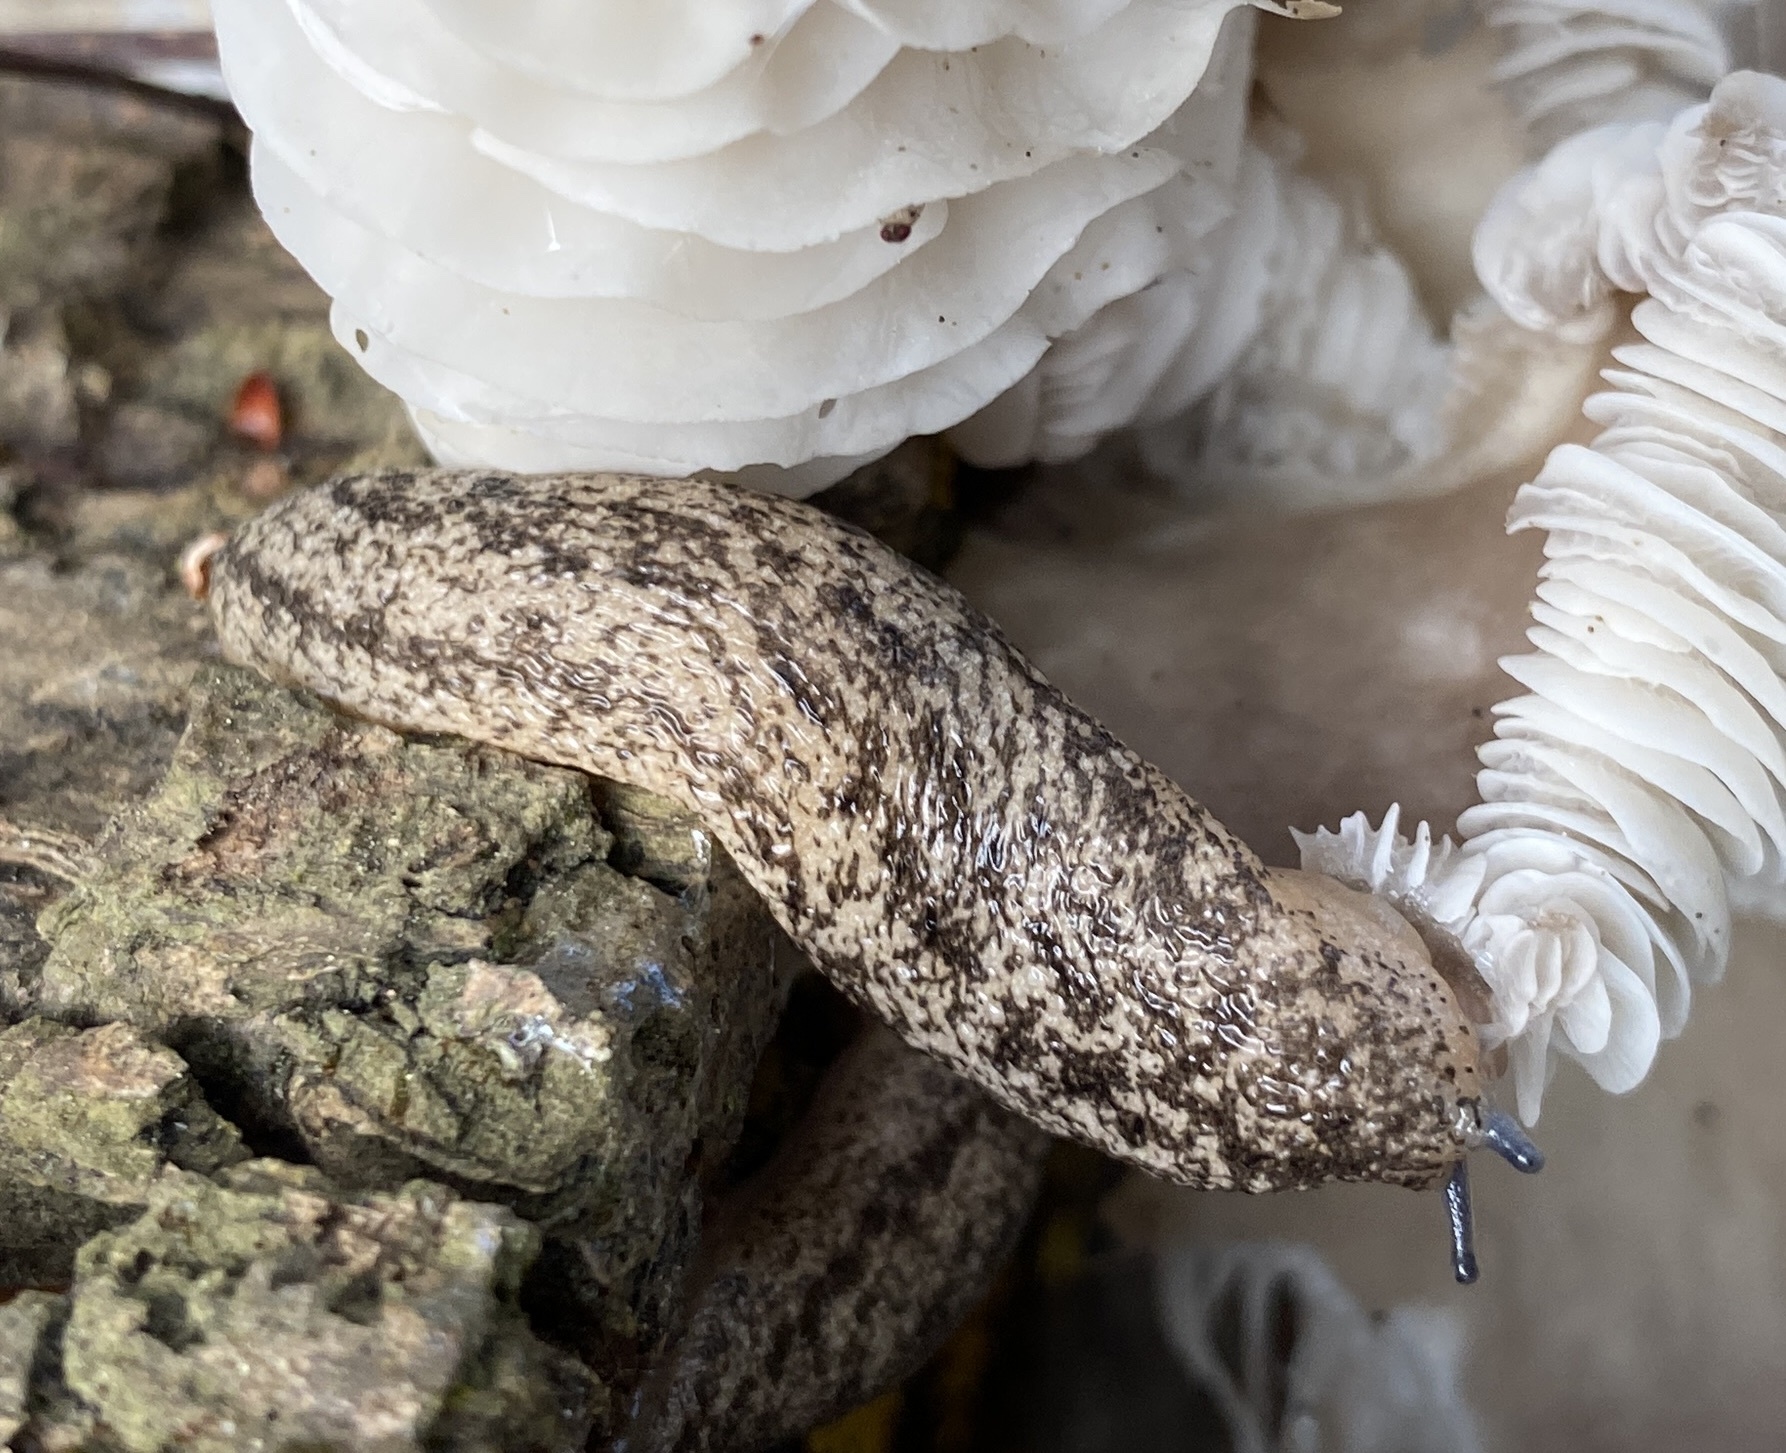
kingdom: Animalia
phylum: Mollusca
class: Gastropoda
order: Stylommatophora
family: Philomycidae
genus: Philomycus
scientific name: Philomycus carolinianus
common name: Carolina mantleslug
